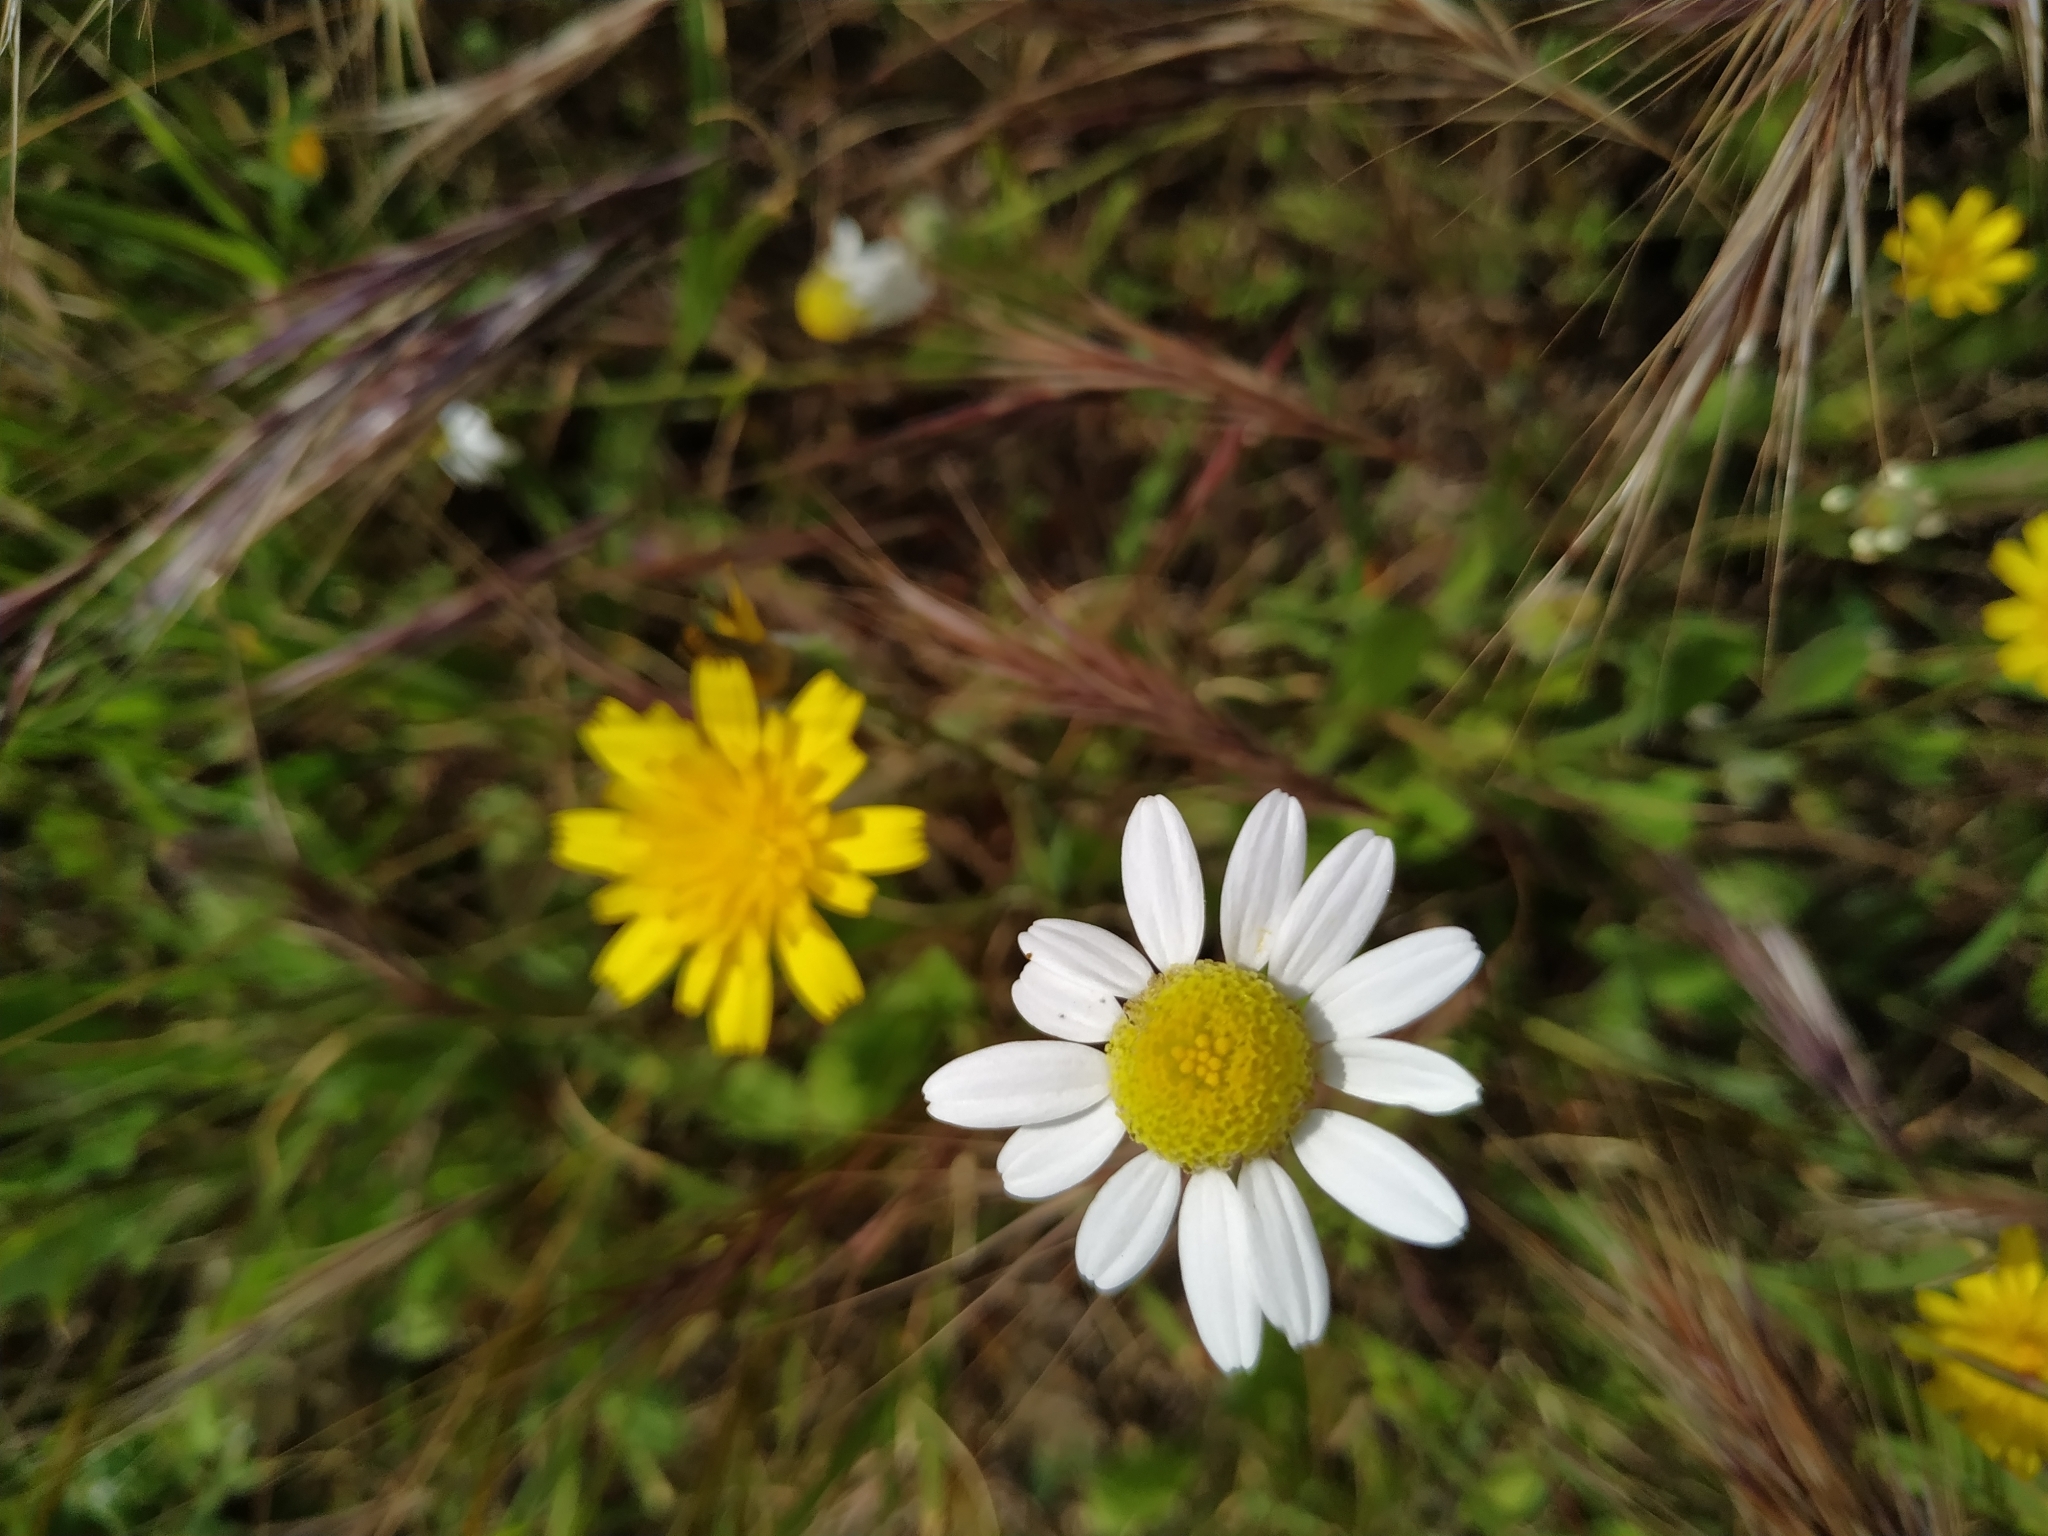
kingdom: Plantae
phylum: Tracheophyta
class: Magnoliopsida
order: Asterales
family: Asteraceae
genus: Matricaria
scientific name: Matricaria chamomilla
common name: Scented mayweed
